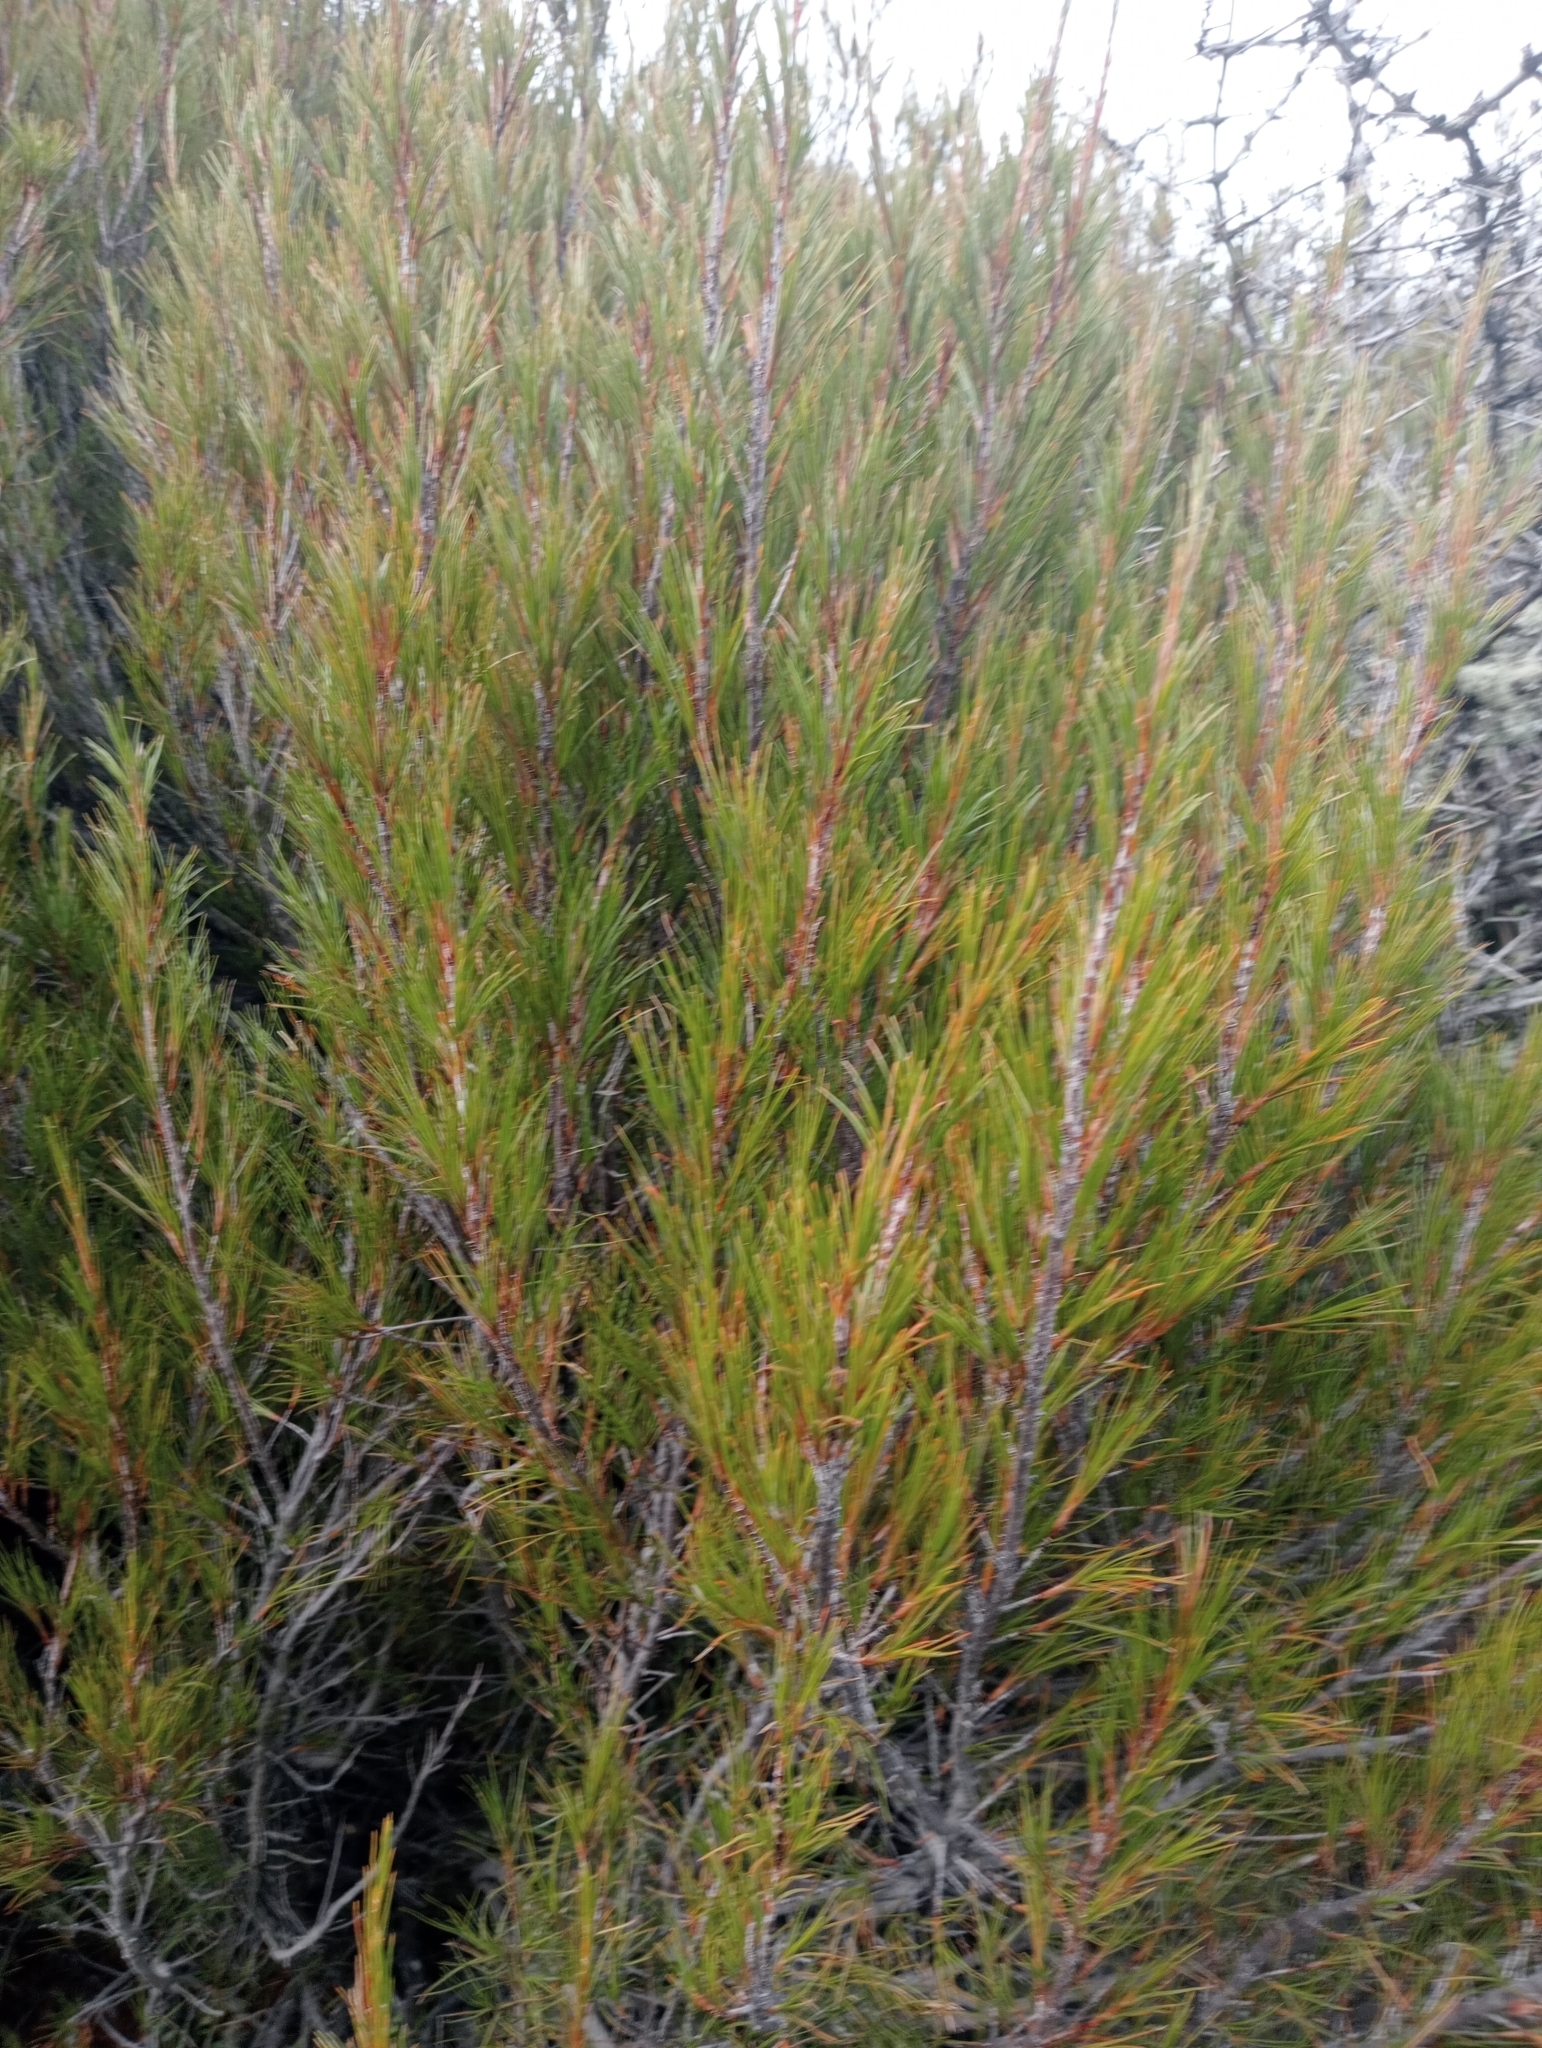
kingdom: Plantae
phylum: Tracheophyta
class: Magnoliopsida
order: Ericales
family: Ericaceae
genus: Dracophyllum
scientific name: Dracophyllum rosmarinifolium
